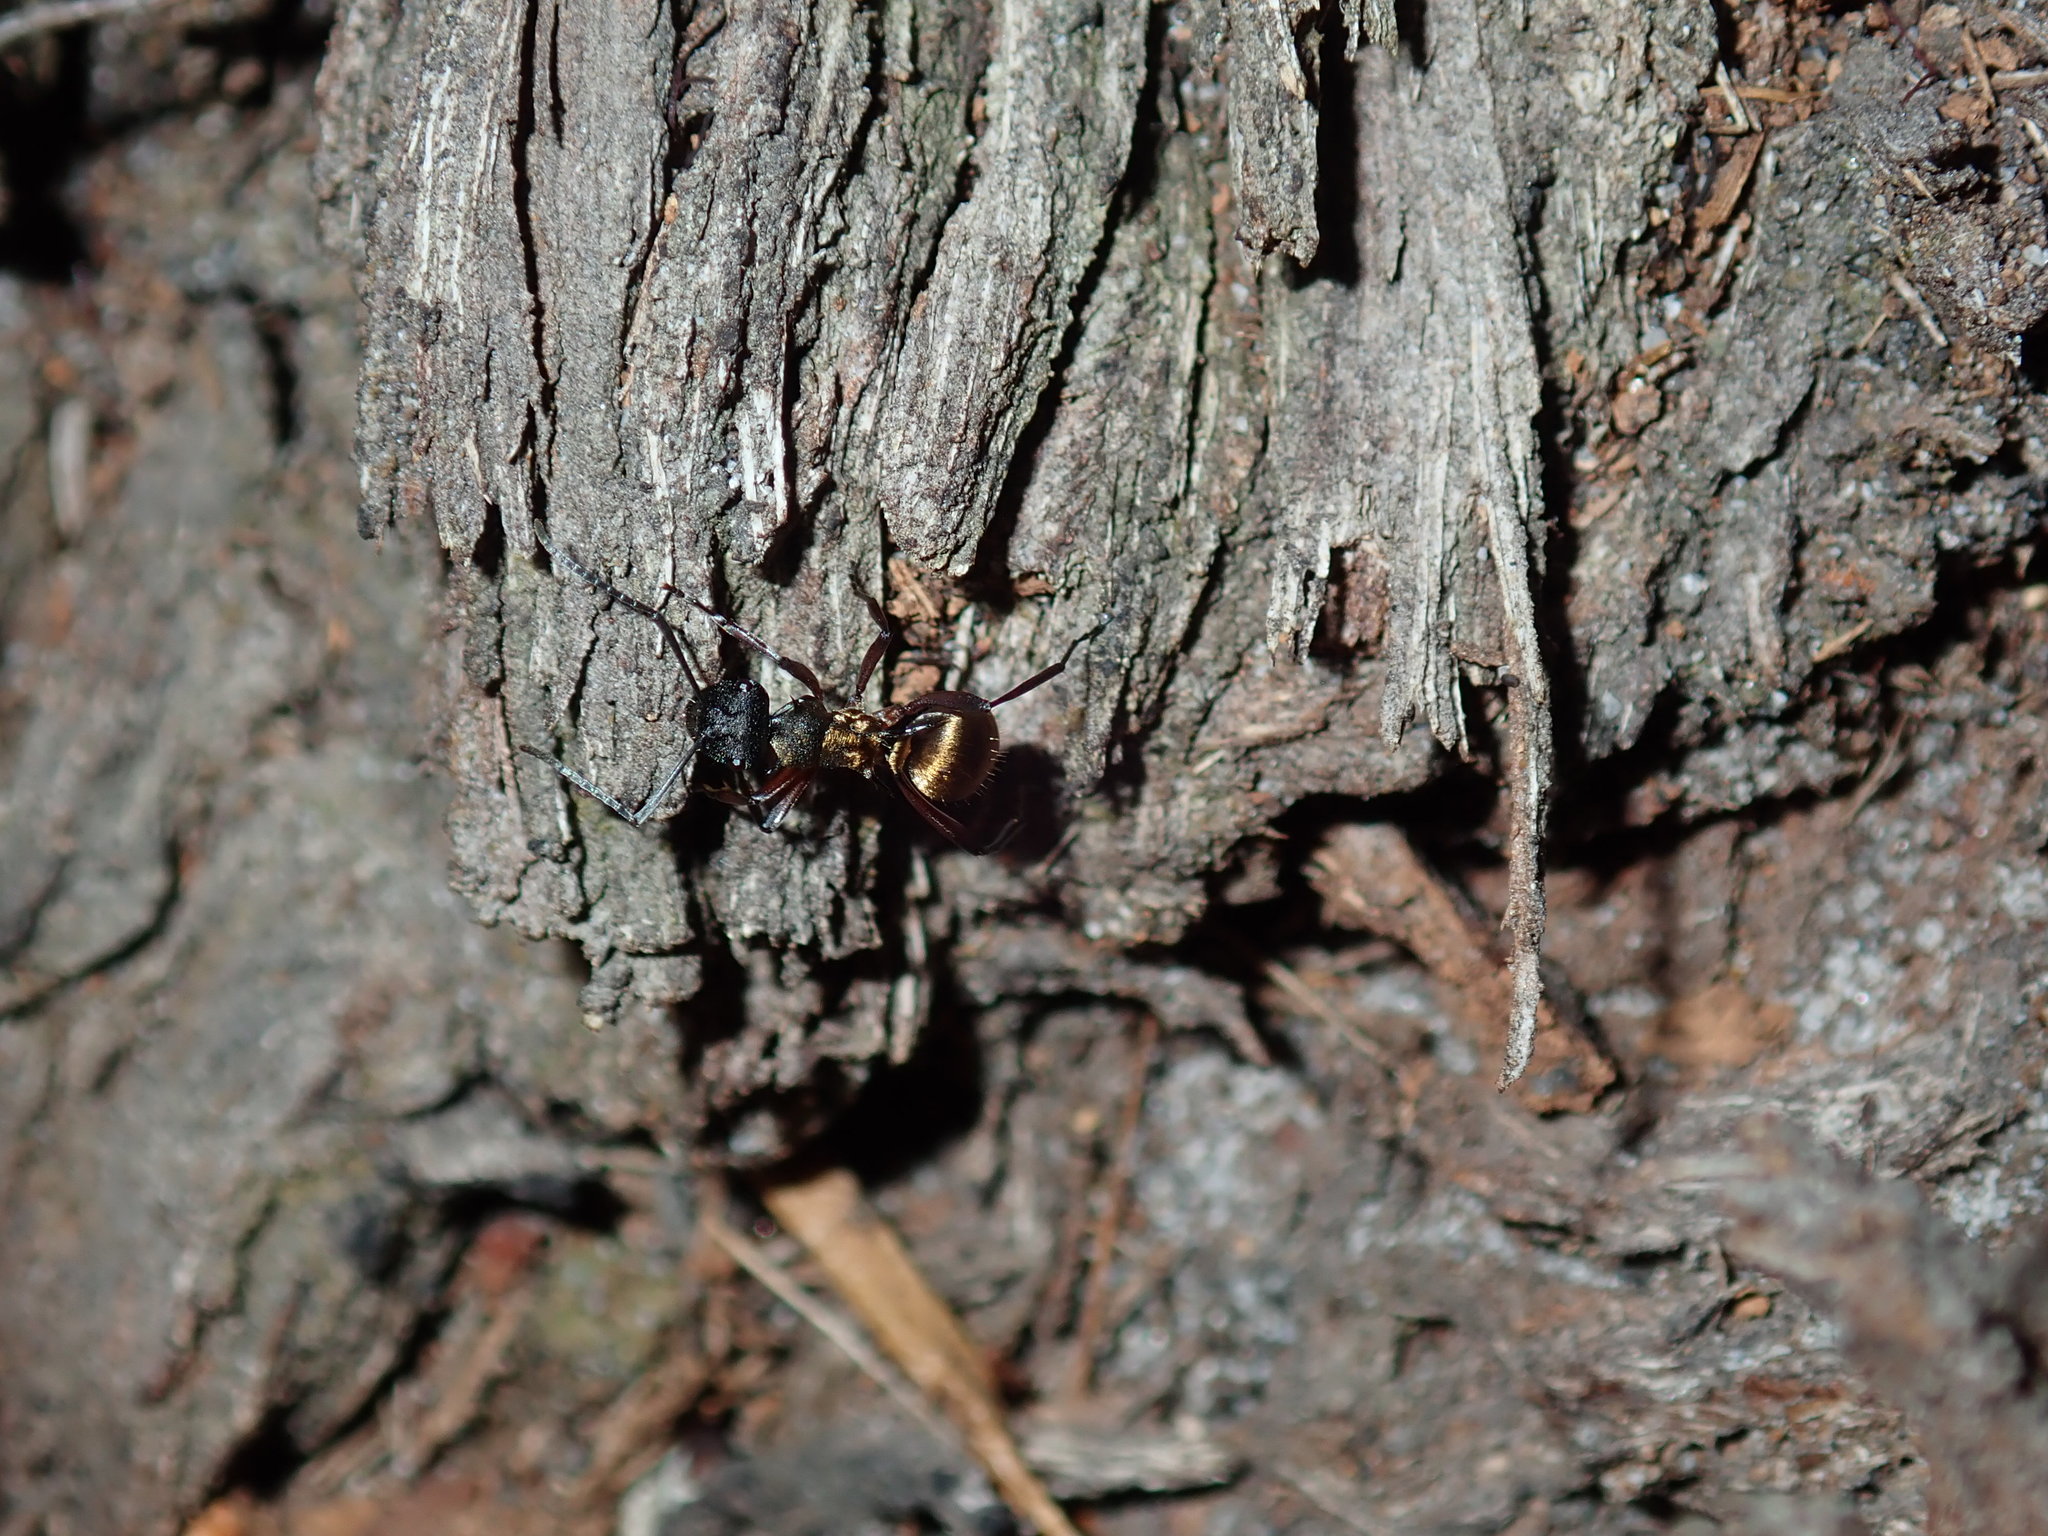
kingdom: Animalia
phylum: Arthropoda
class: Insecta
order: Hymenoptera
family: Formicidae
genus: Polyrhachis
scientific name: Polyrhachis rufifemur
